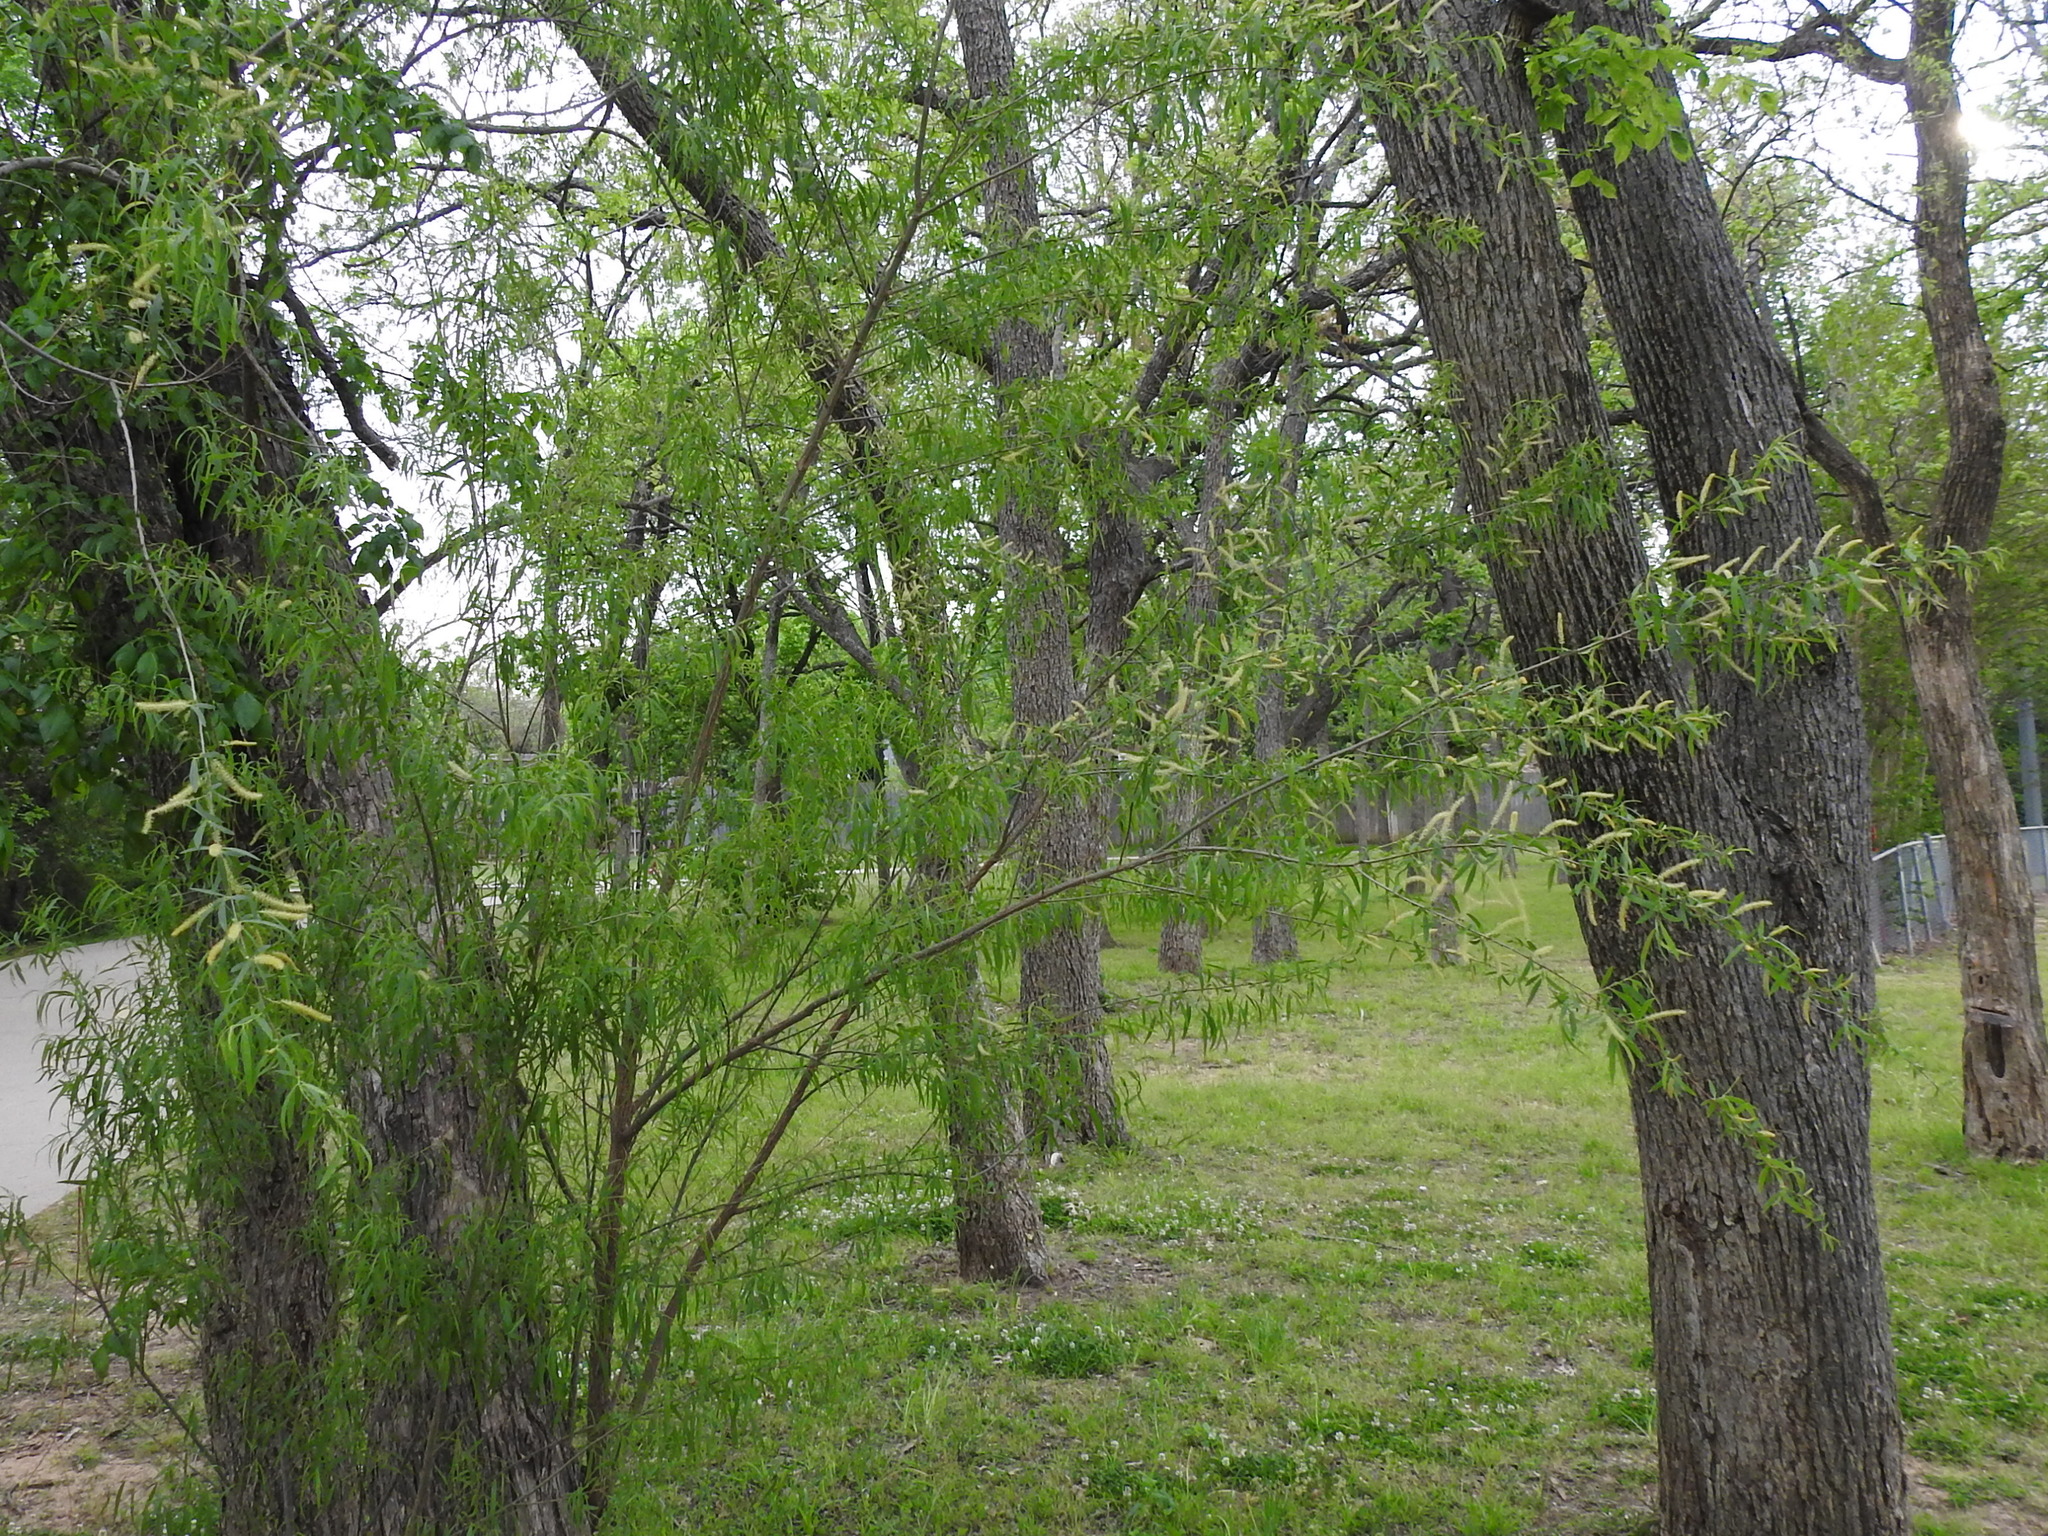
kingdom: Plantae
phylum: Tracheophyta
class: Magnoliopsida
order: Malpighiales
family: Salicaceae
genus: Salix
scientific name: Salix nigra
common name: Black willow
